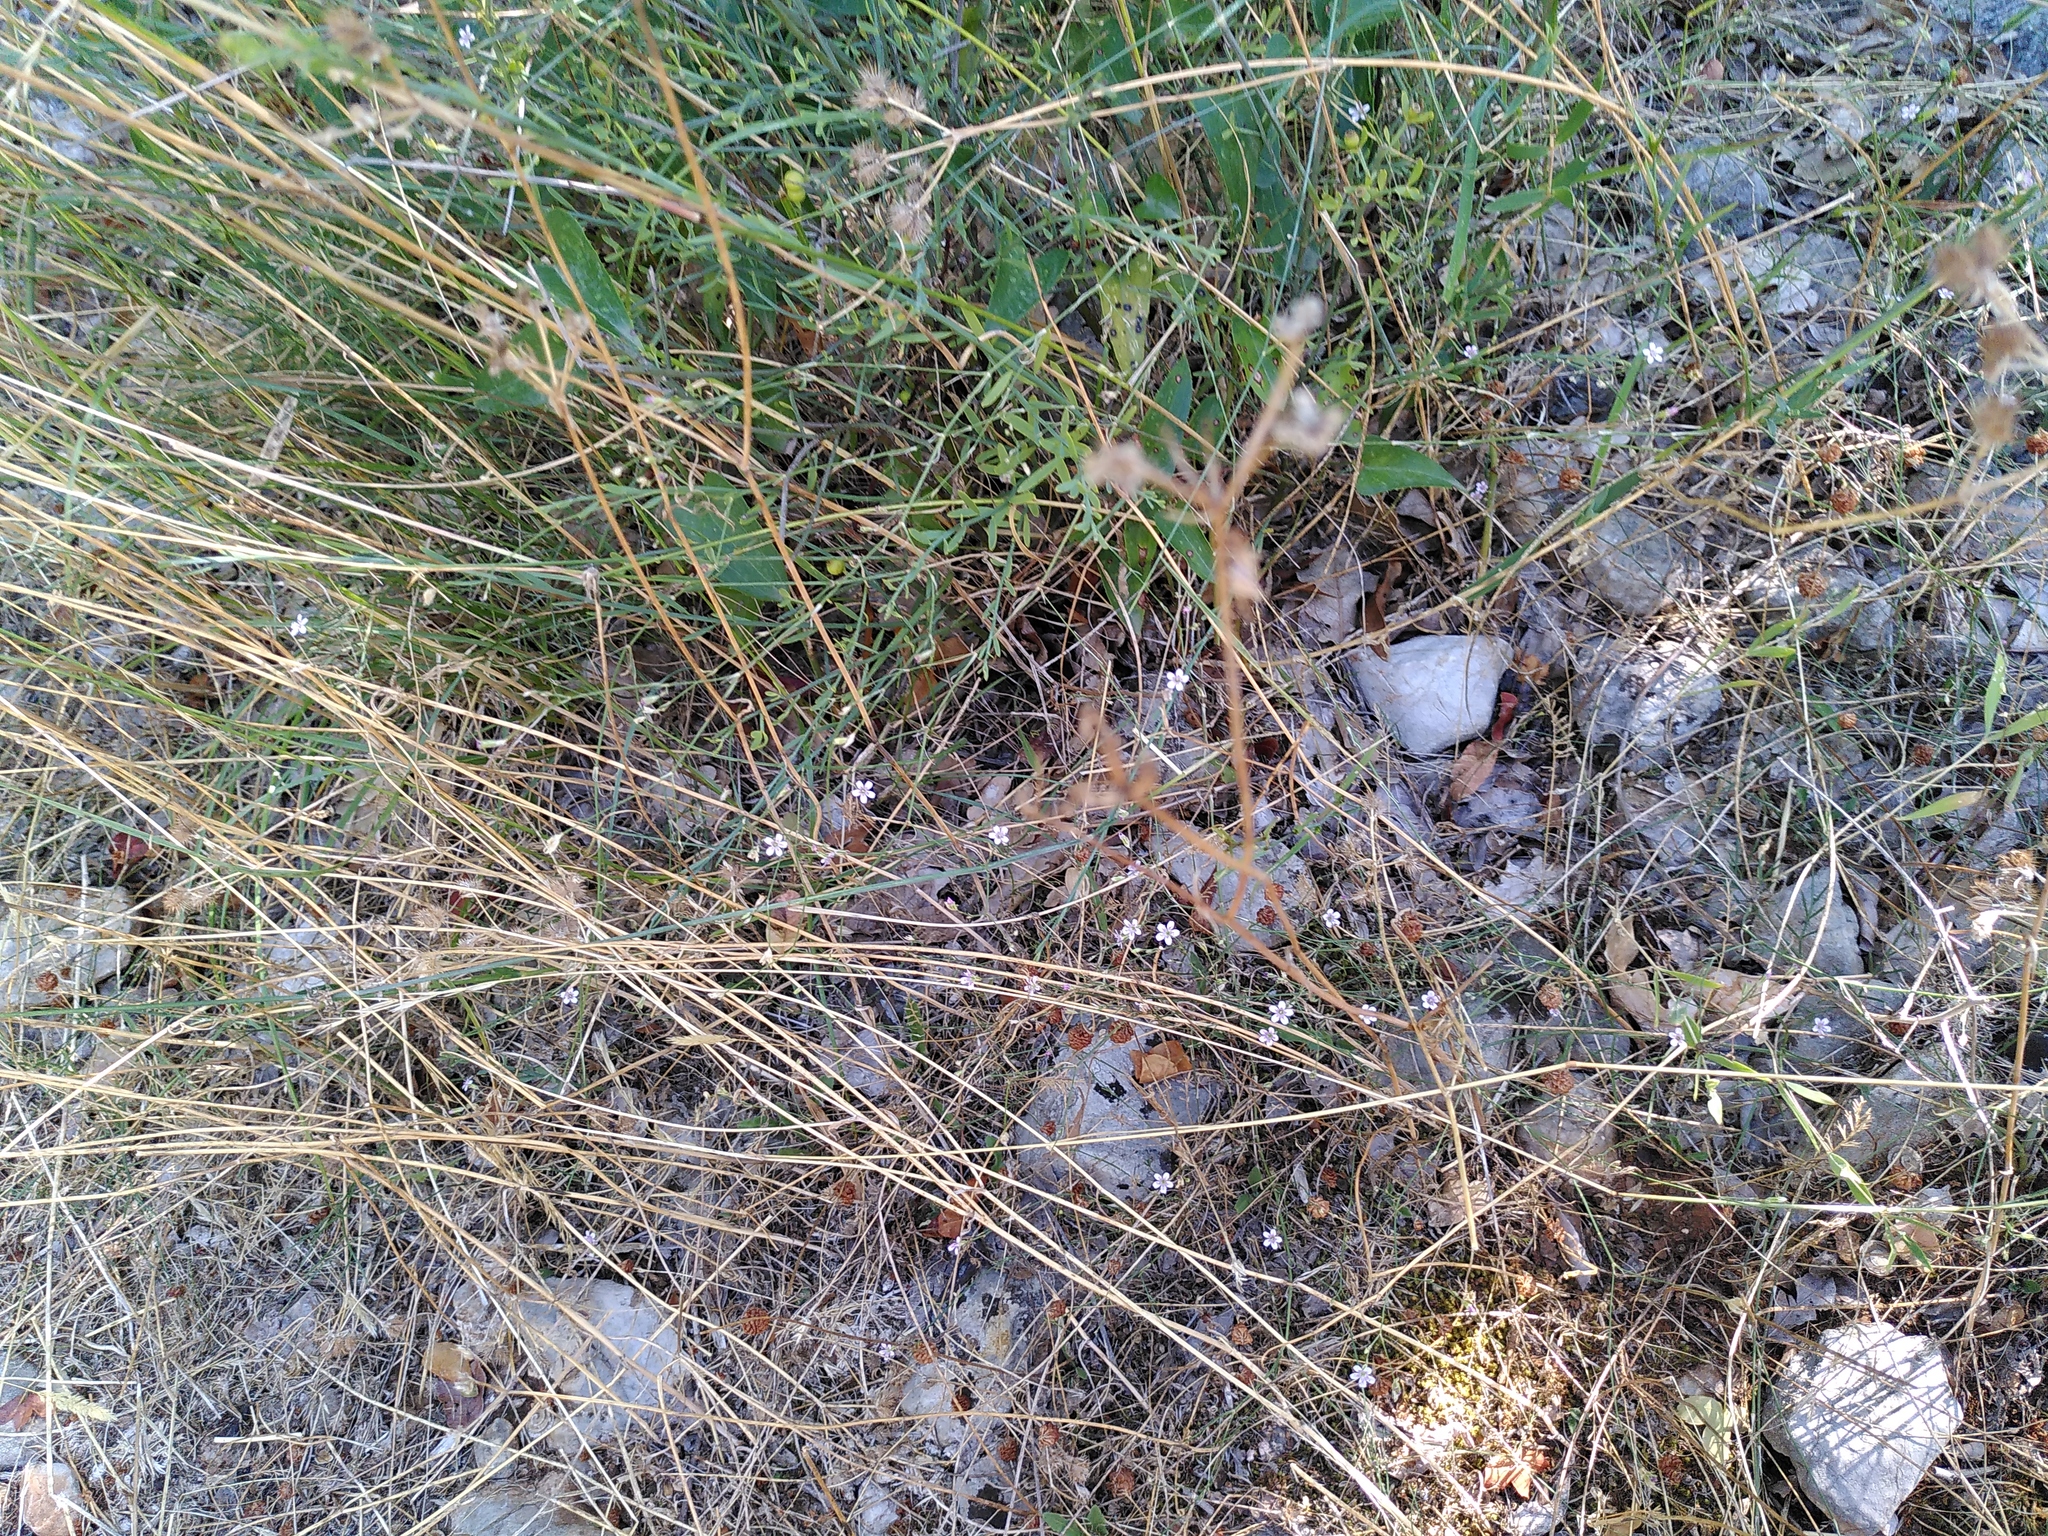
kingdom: Plantae
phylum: Tracheophyta
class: Magnoliopsida
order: Caryophyllales
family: Caryophyllaceae
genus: Petrorhagia
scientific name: Petrorhagia saxifraga
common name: Tunicflower
